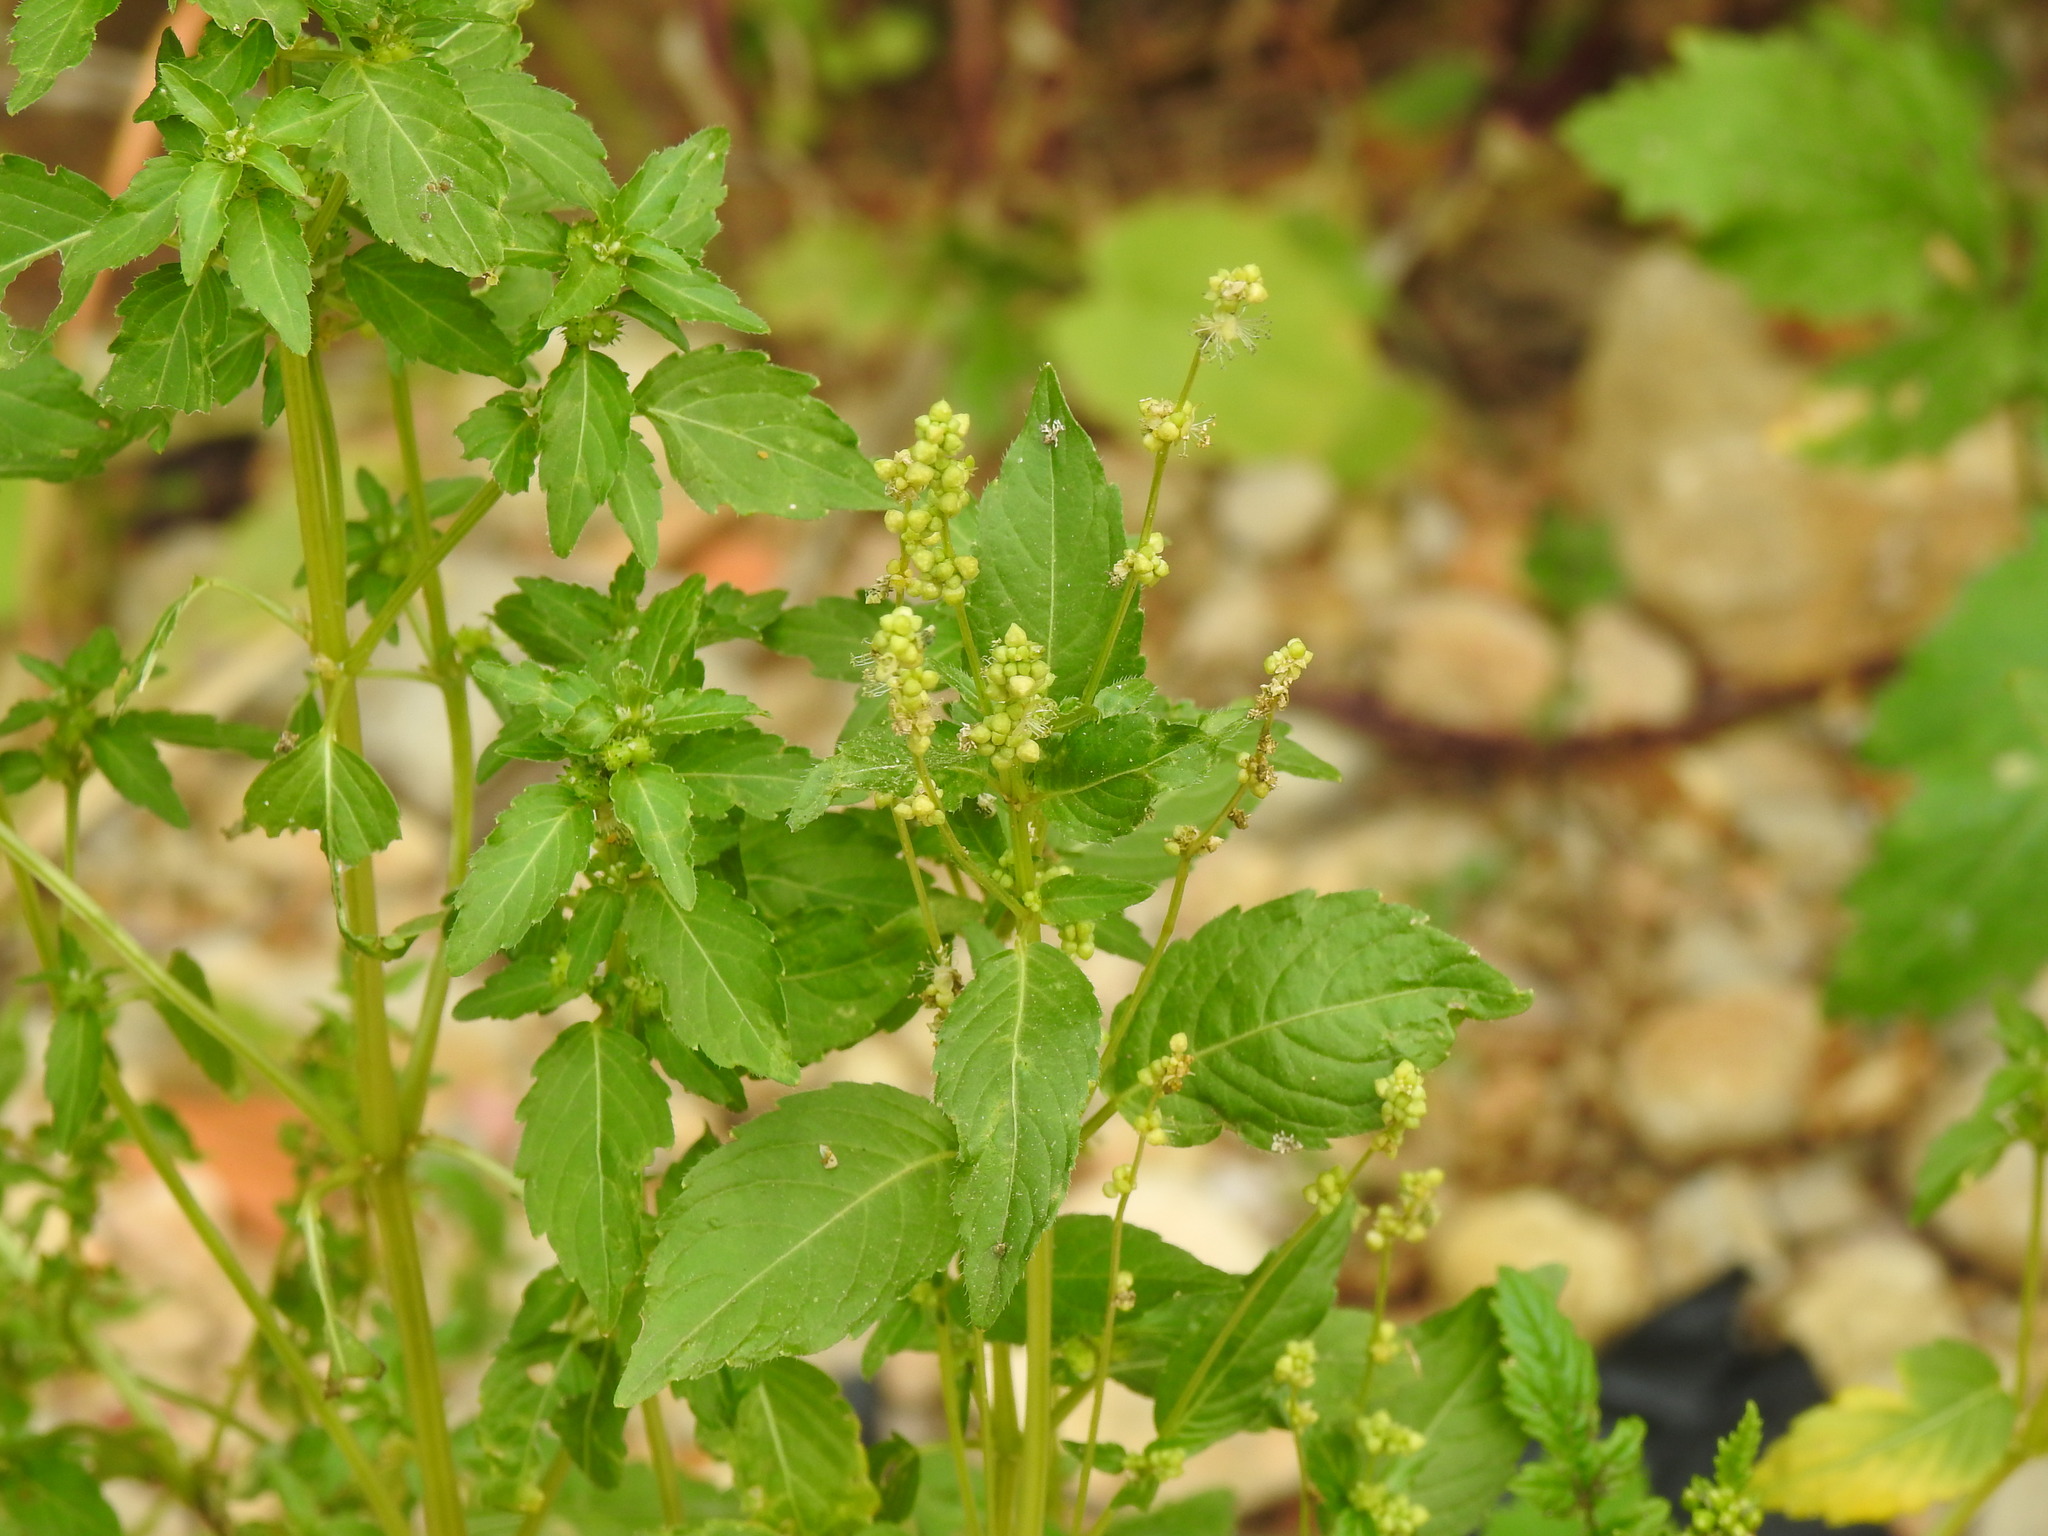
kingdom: Plantae
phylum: Tracheophyta
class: Magnoliopsida
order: Malpighiales
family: Euphorbiaceae
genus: Mercurialis
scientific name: Mercurialis annua
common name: Annual mercury
